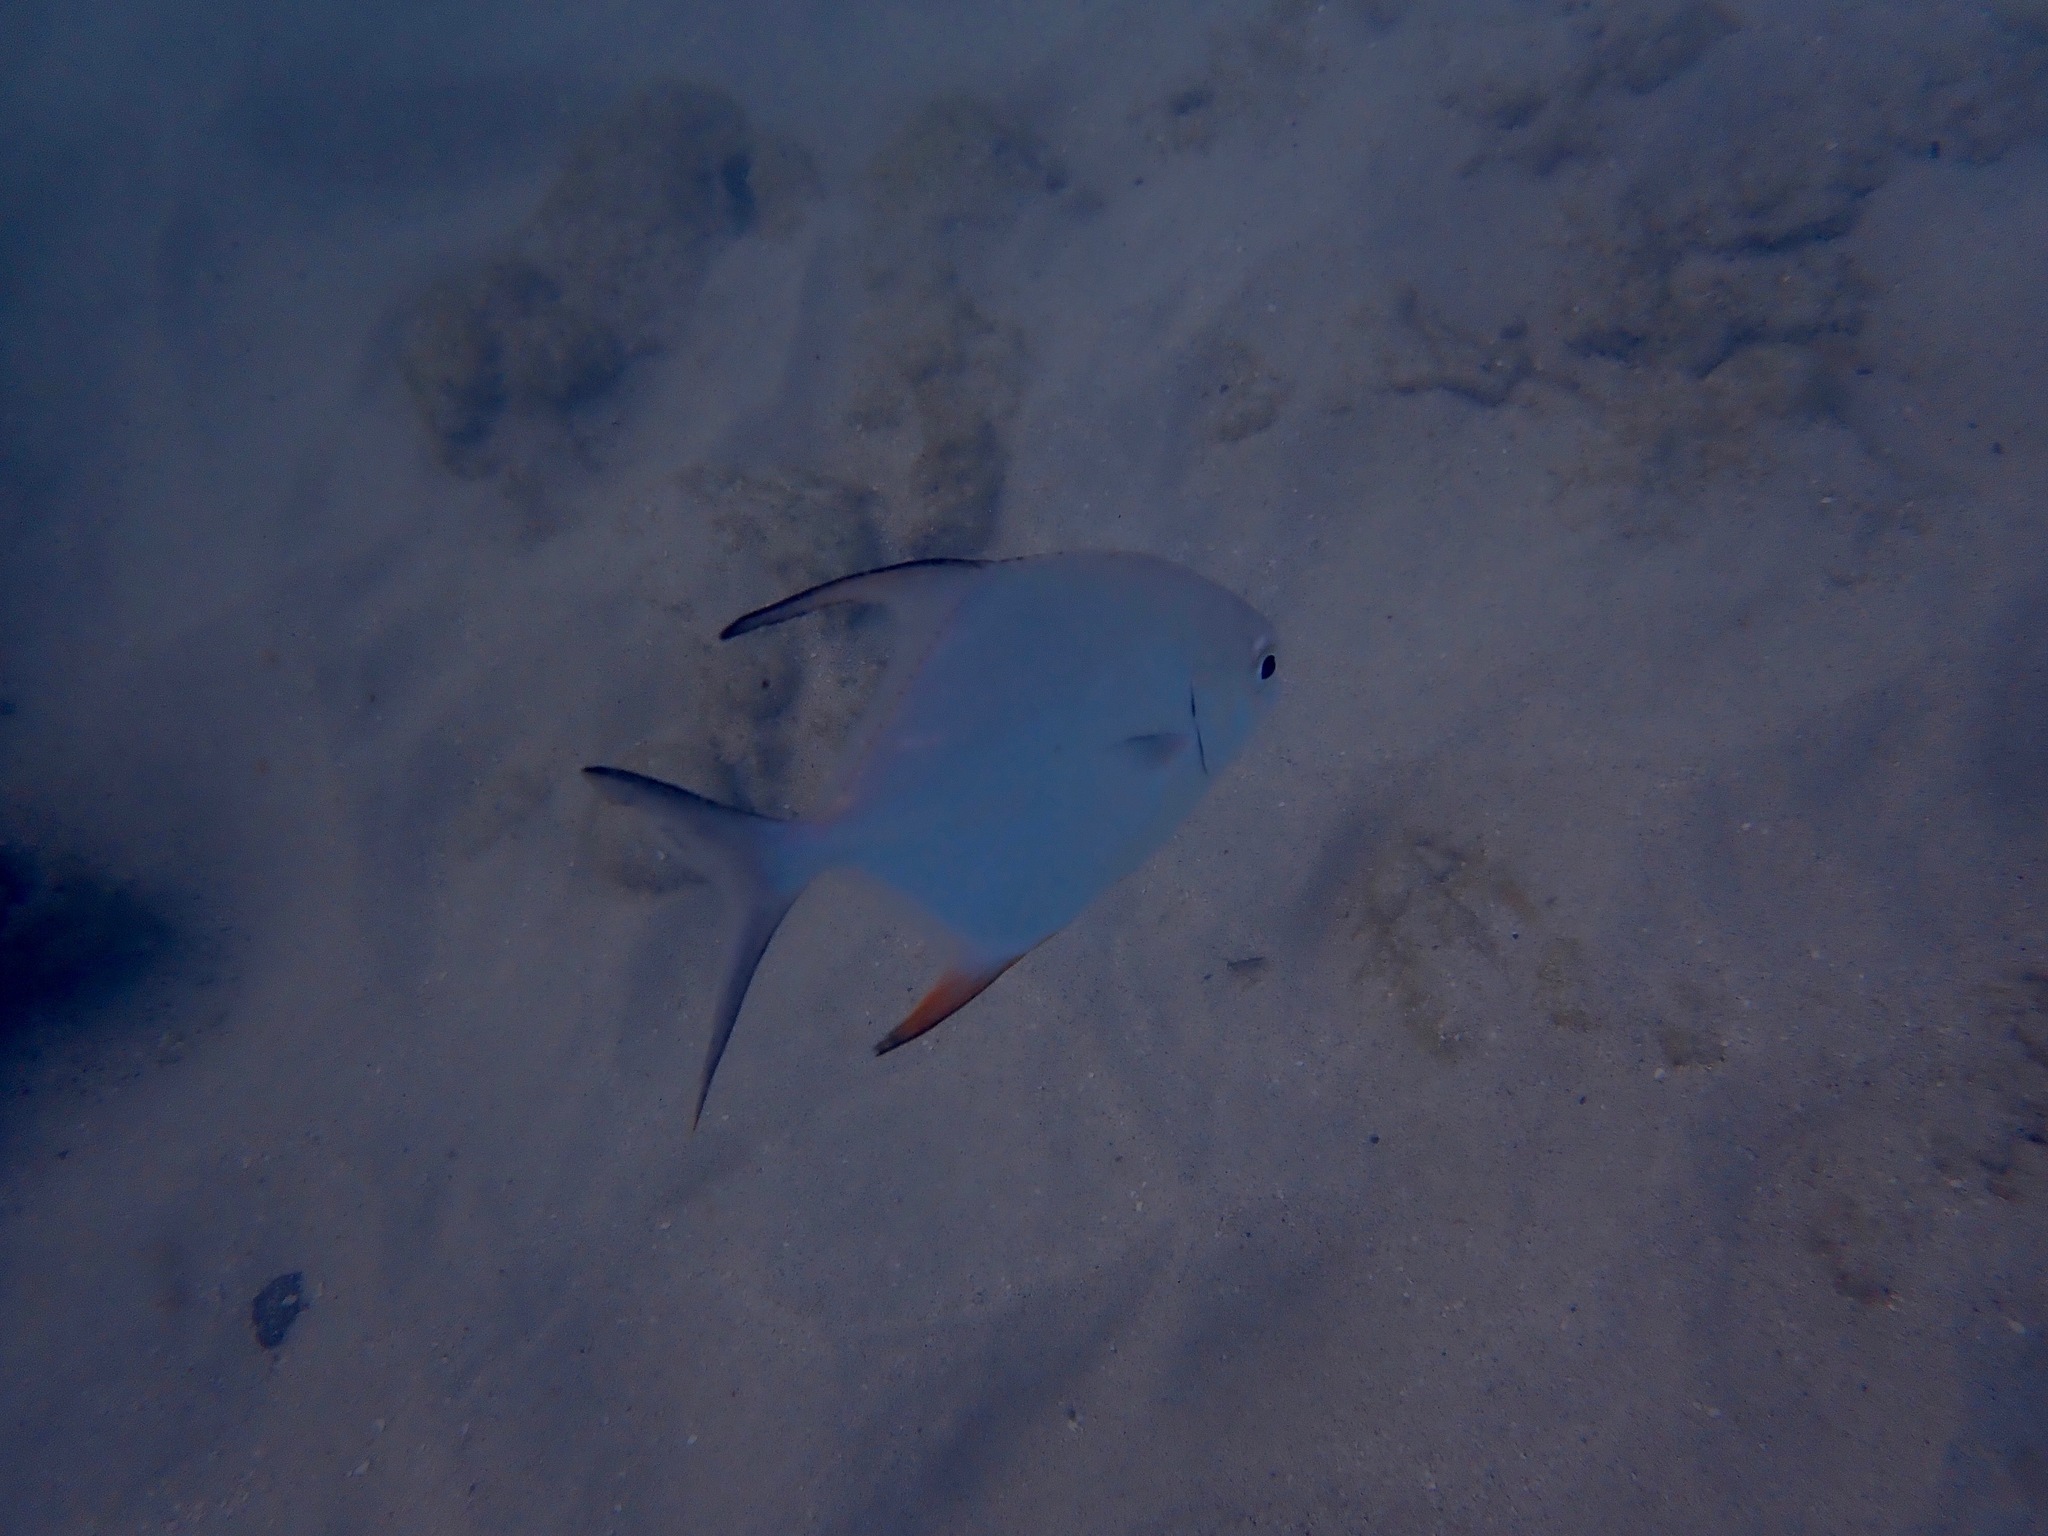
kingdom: Animalia
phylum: Chordata
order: Perciformes
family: Carangidae
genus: Trachinotus
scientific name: Trachinotus falcatus
